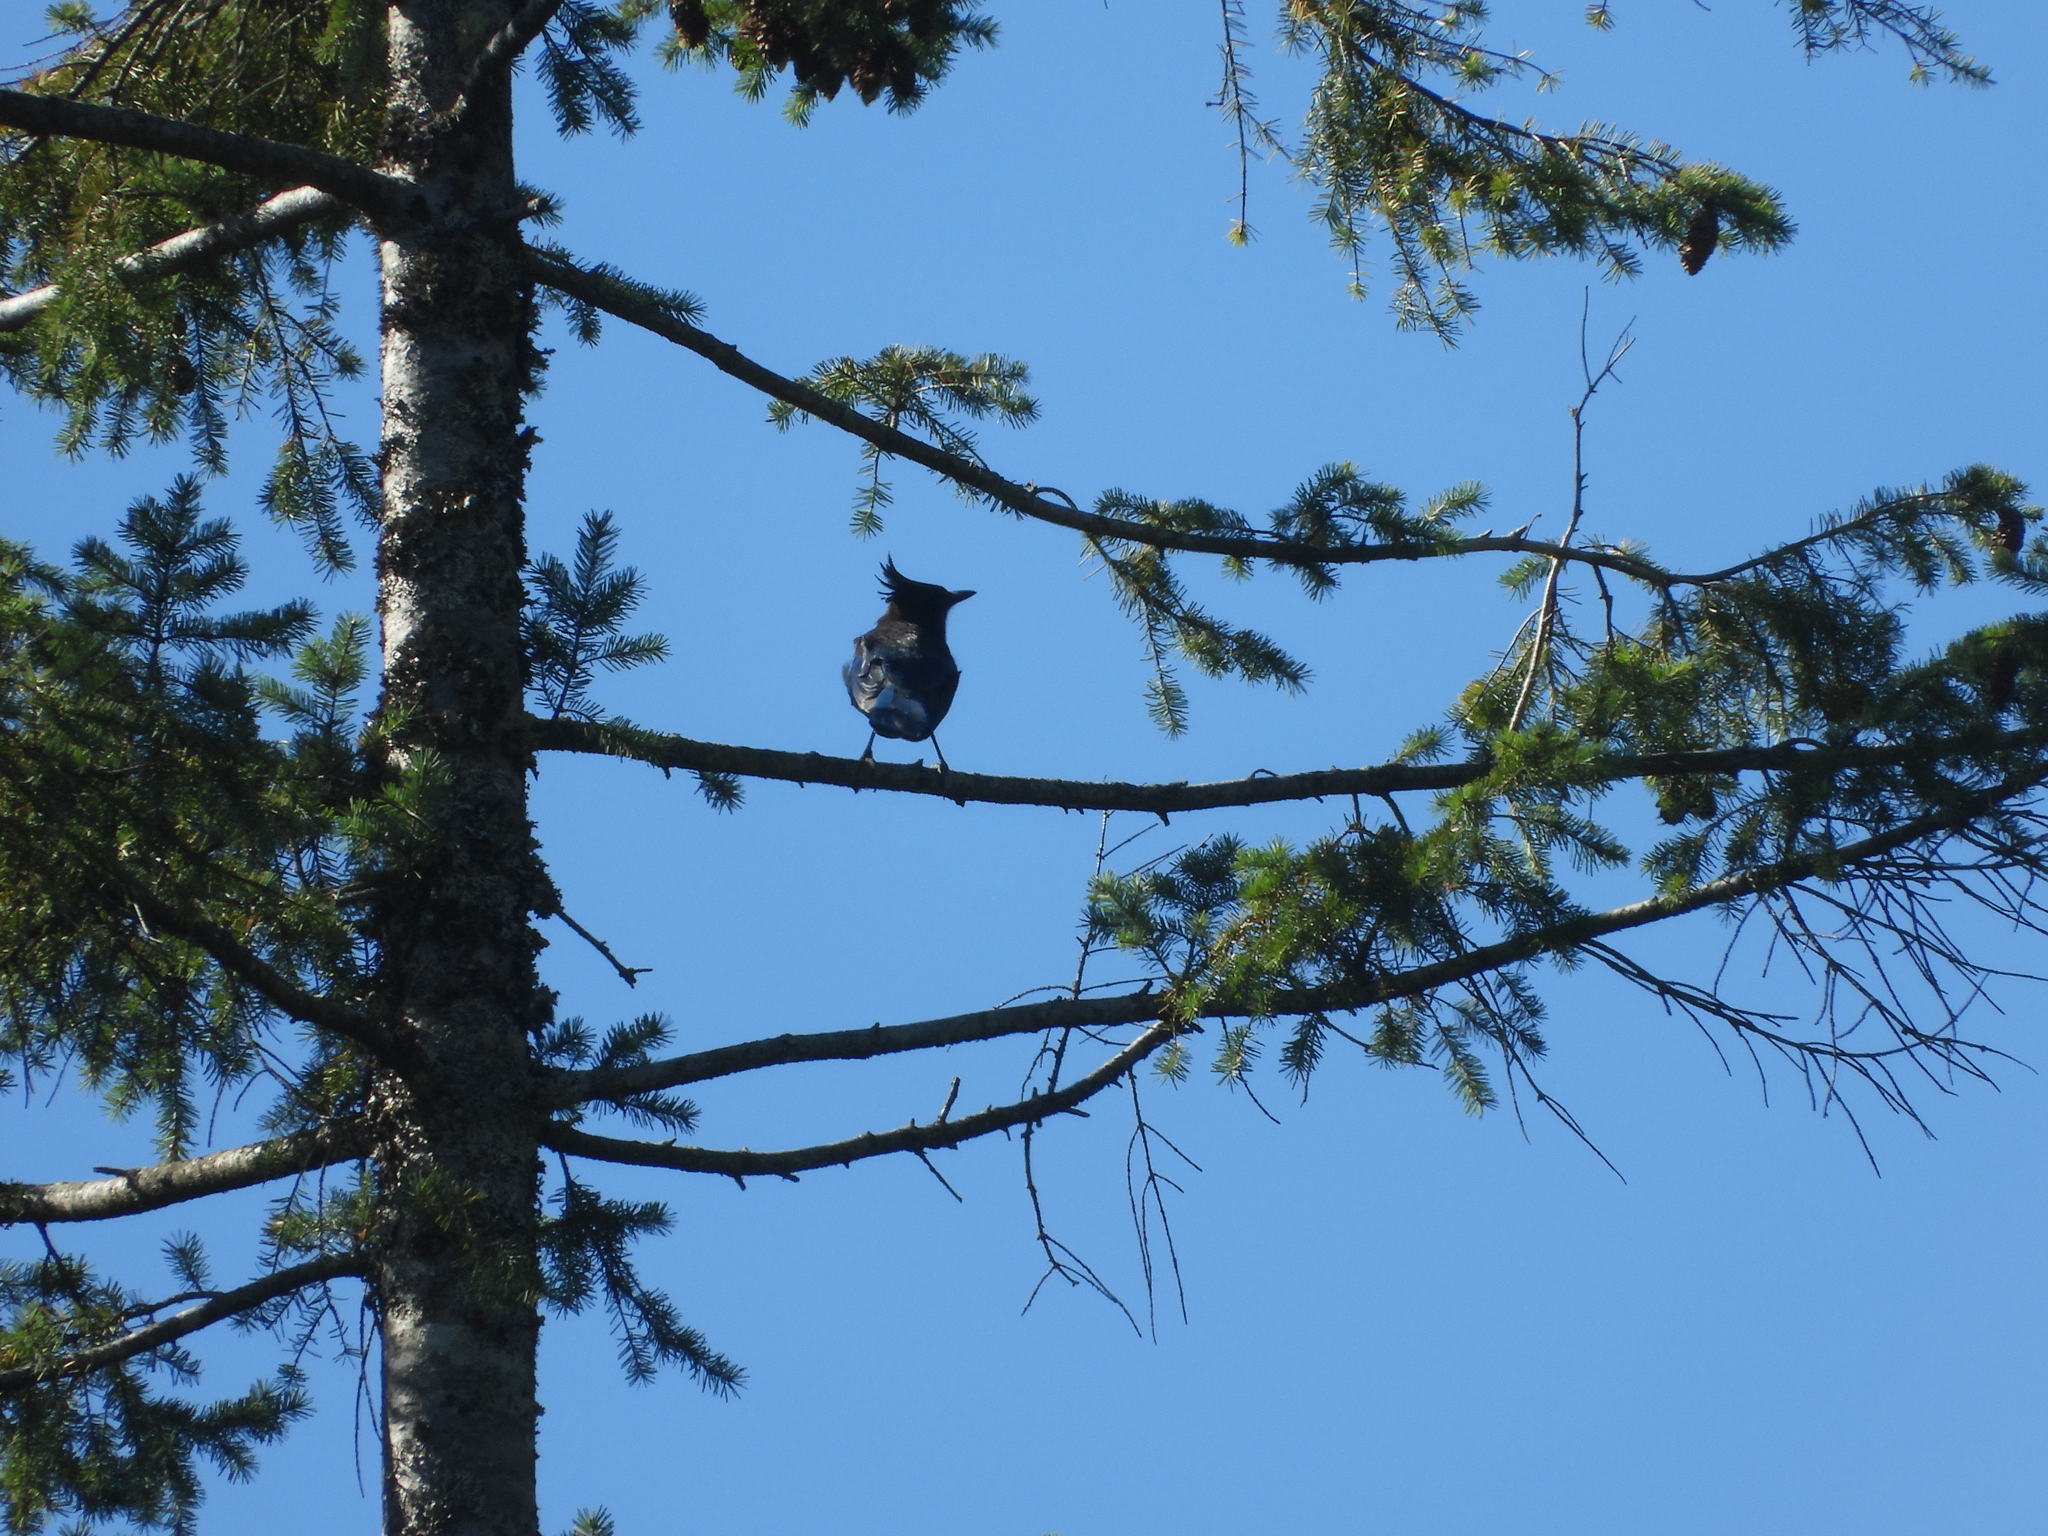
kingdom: Animalia
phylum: Chordata
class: Aves
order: Passeriformes
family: Corvidae
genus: Cyanocitta
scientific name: Cyanocitta stelleri
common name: Steller's jay
